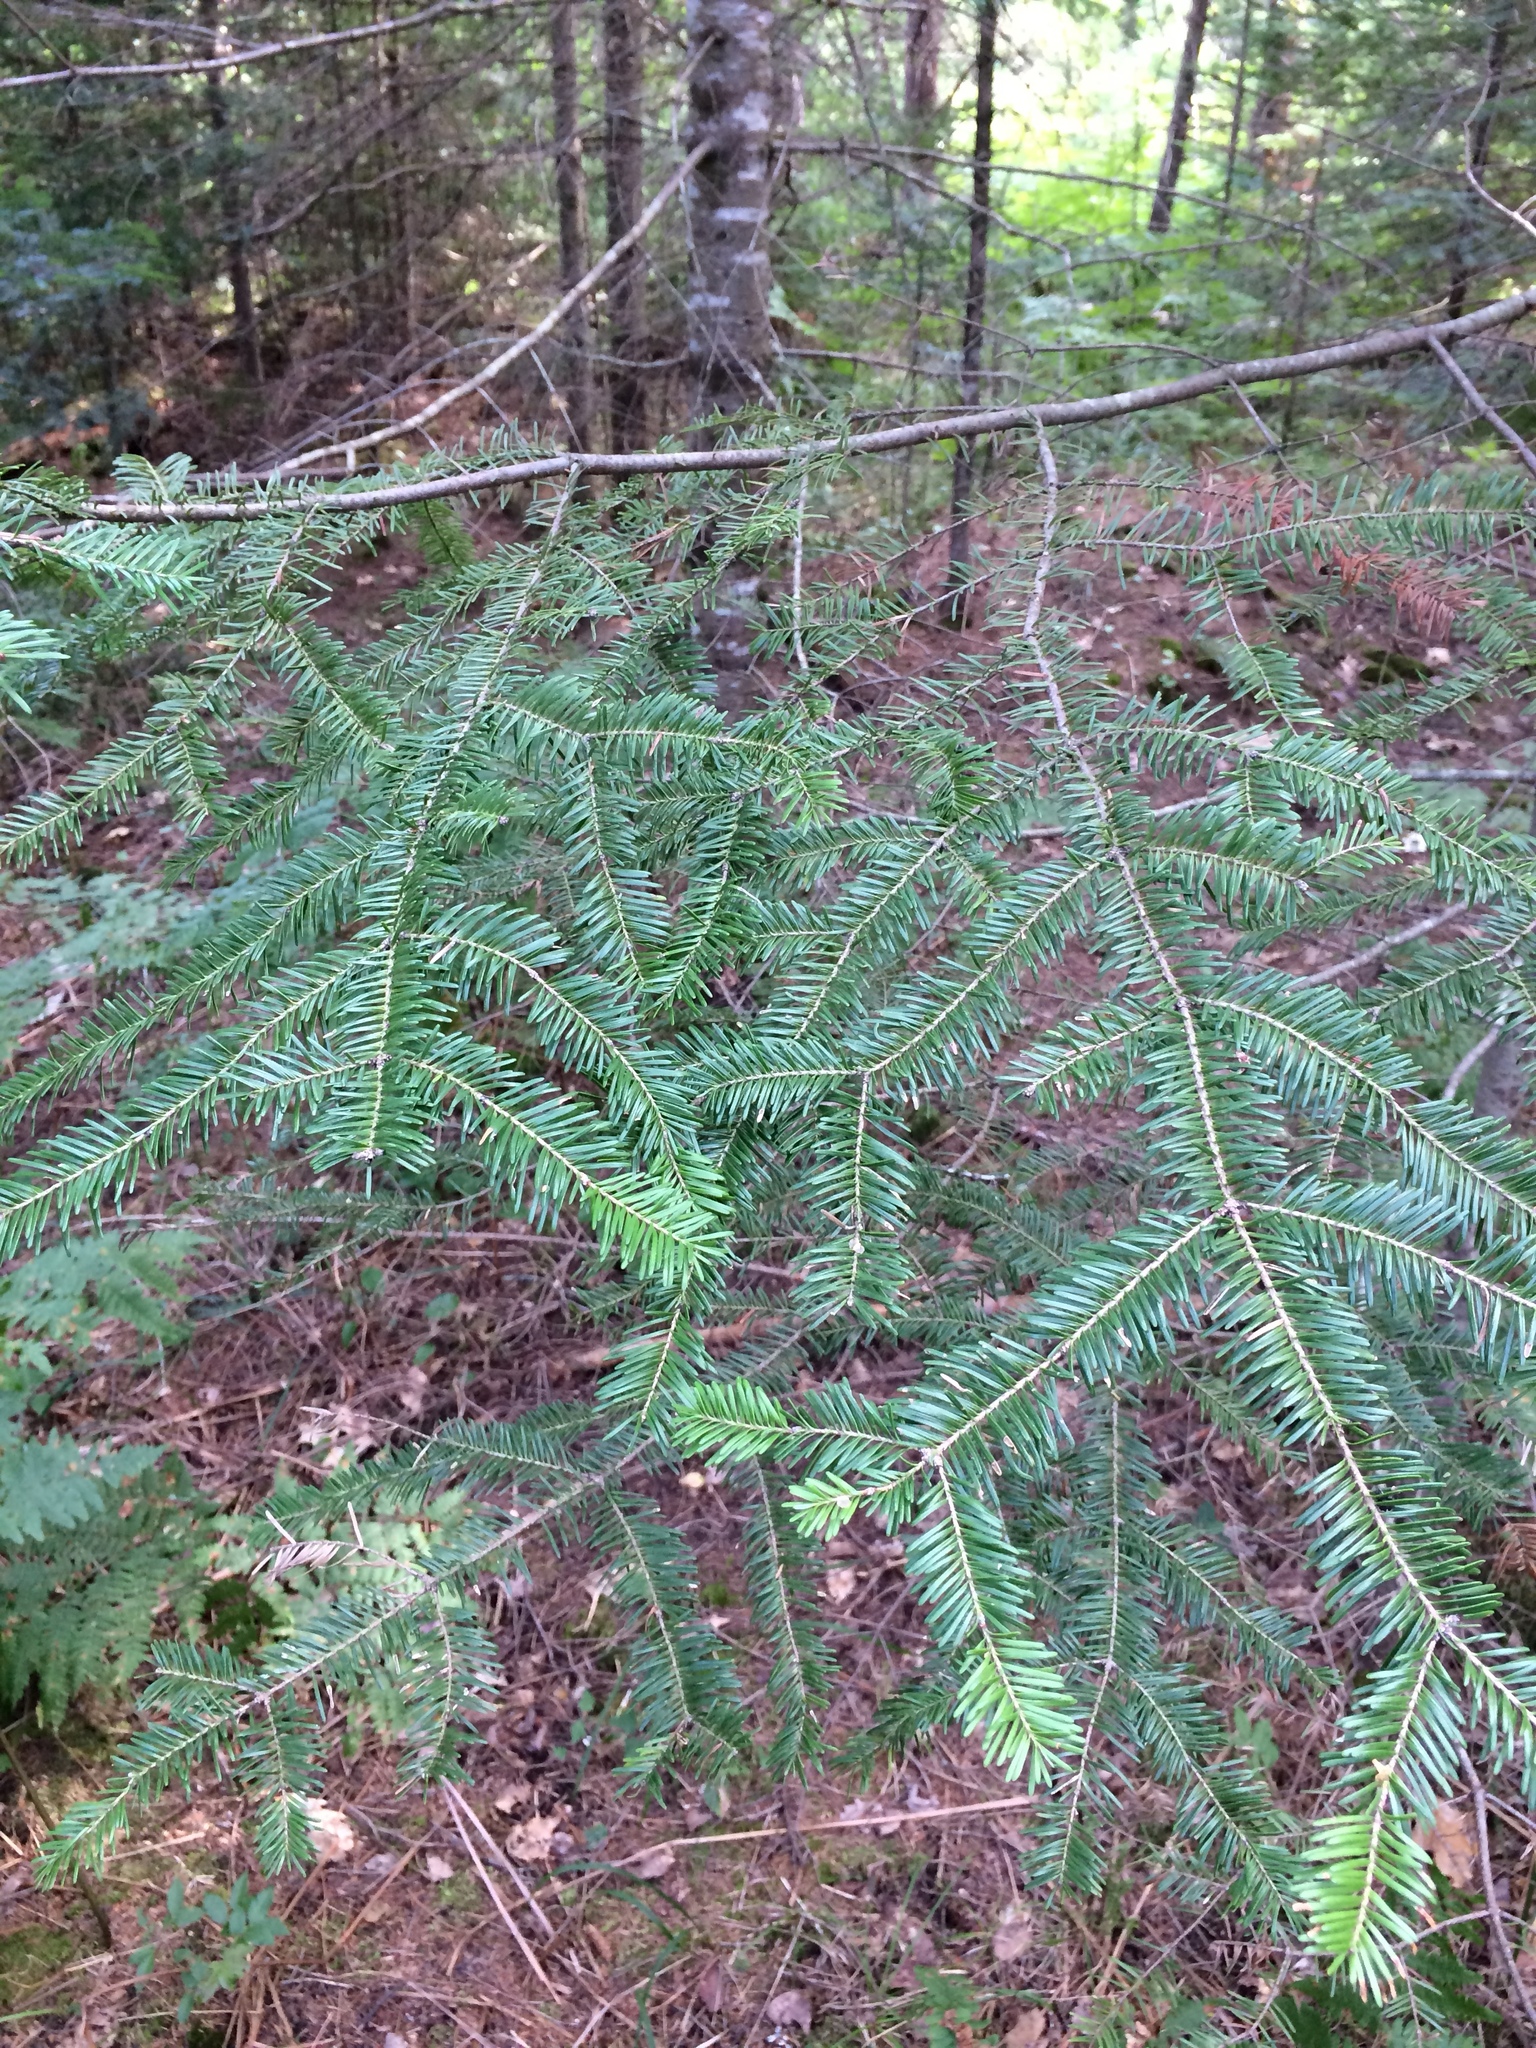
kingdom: Plantae
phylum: Tracheophyta
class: Pinopsida
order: Pinales
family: Pinaceae
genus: Abies
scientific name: Abies balsamea
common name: Balsam fir
